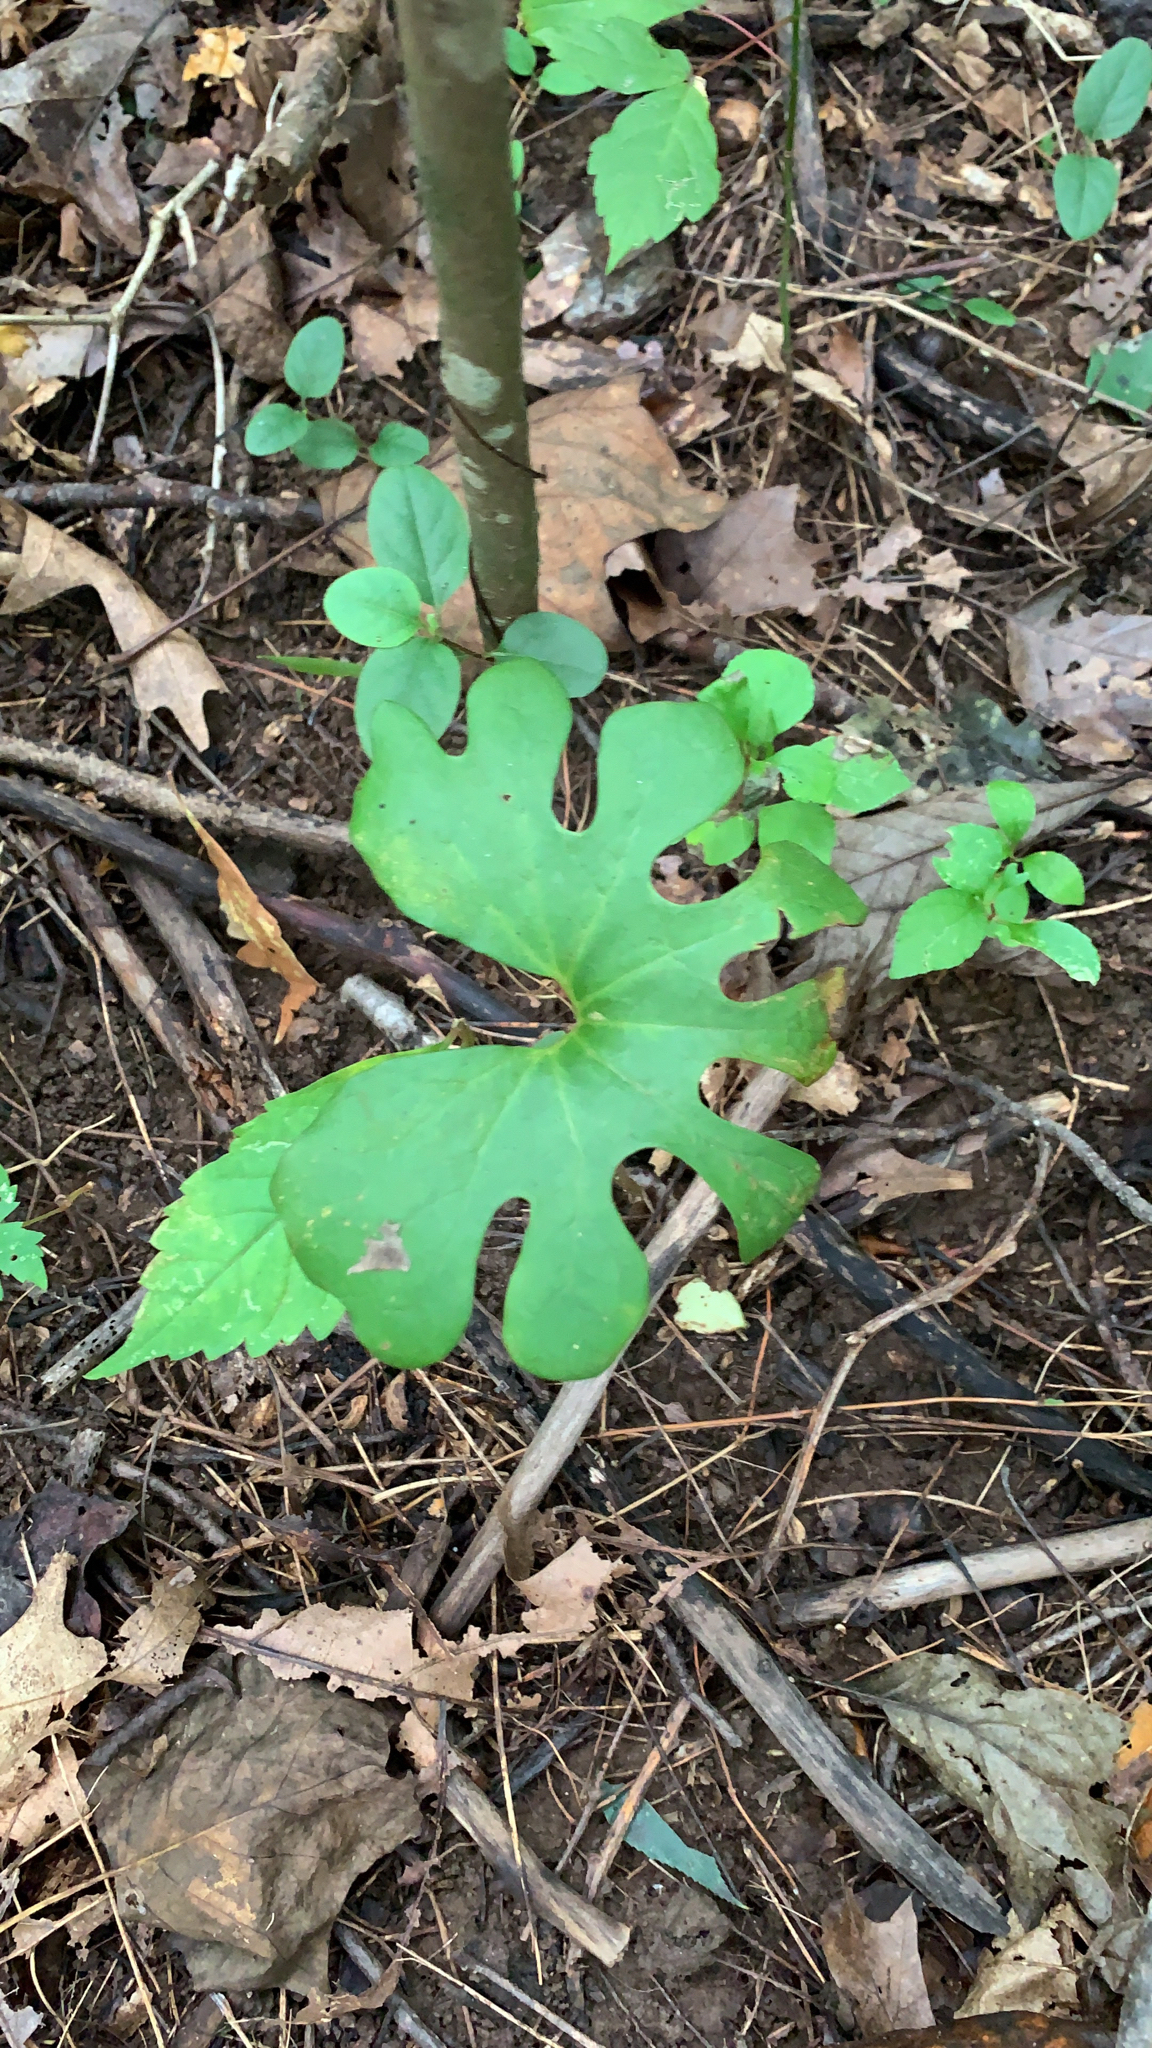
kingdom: Plantae
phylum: Tracheophyta
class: Magnoliopsida
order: Ranunculales
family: Papaveraceae
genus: Sanguinaria
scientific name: Sanguinaria canadensis
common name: Bloodroot
